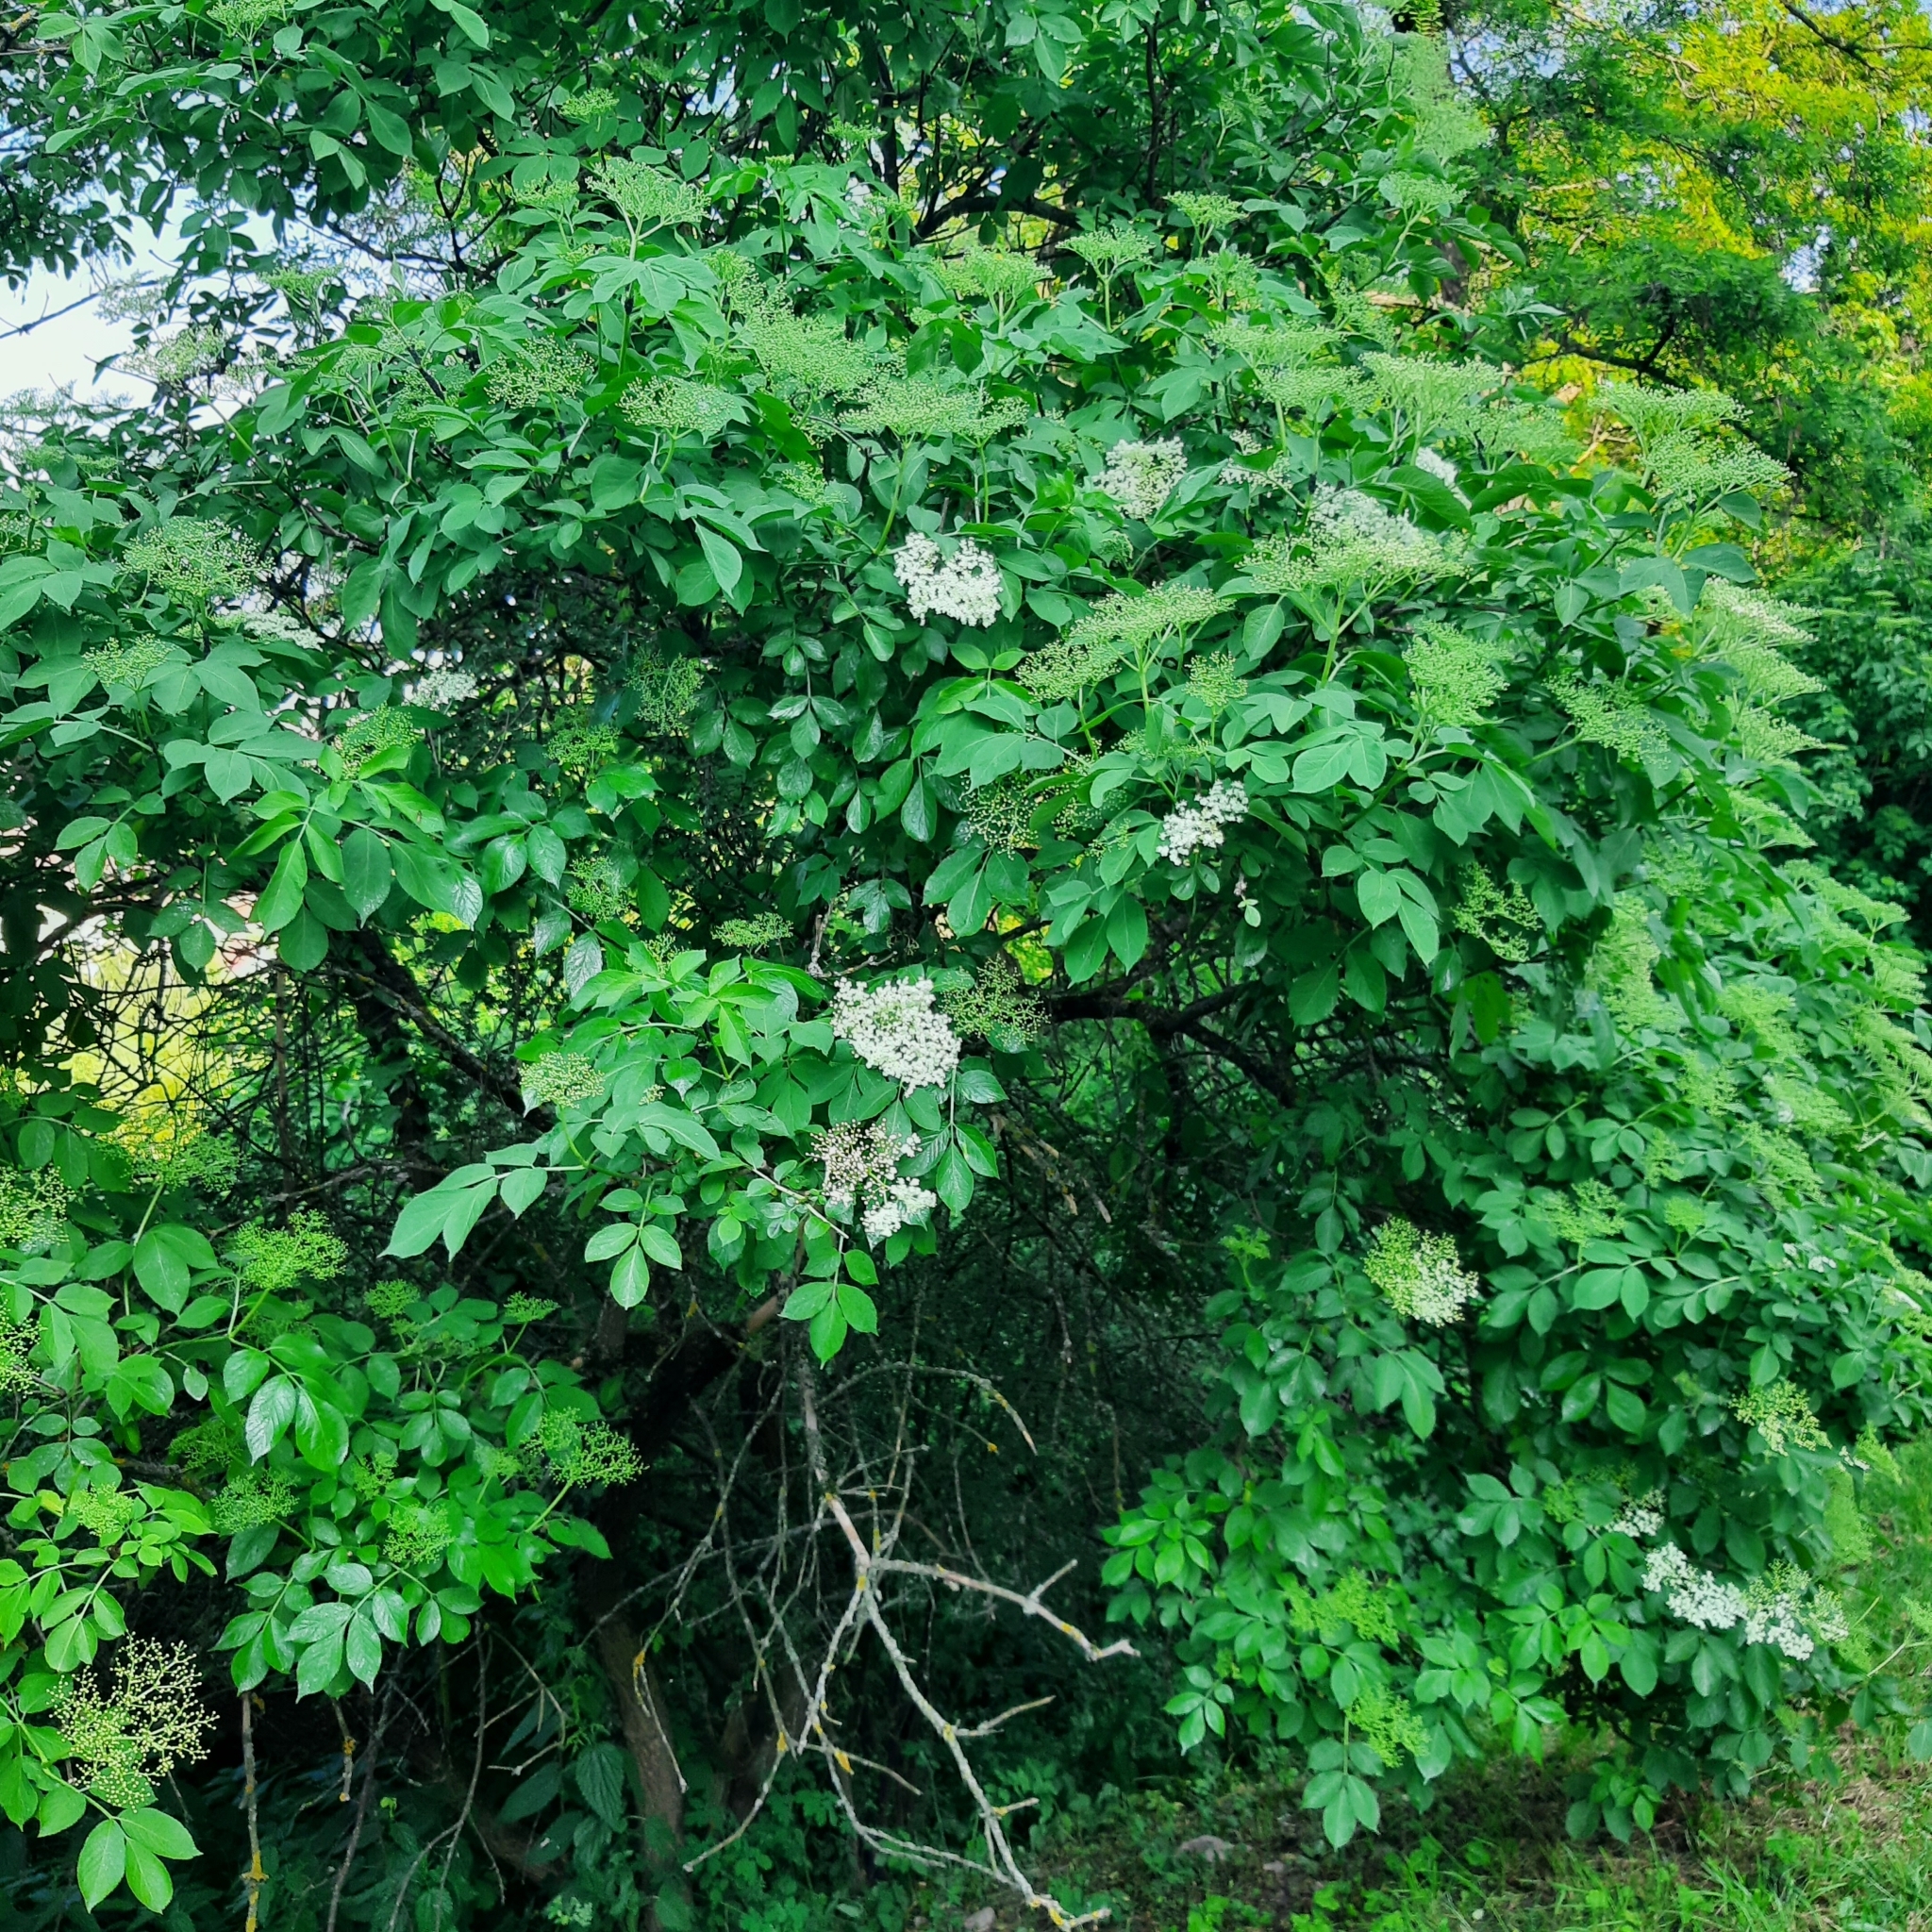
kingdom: Plantae
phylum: Tracheophyta
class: Magnoliopsida
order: Dipsacales
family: Viburnaceae
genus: Sambucus
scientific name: Sambucus nigra
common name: Elder
